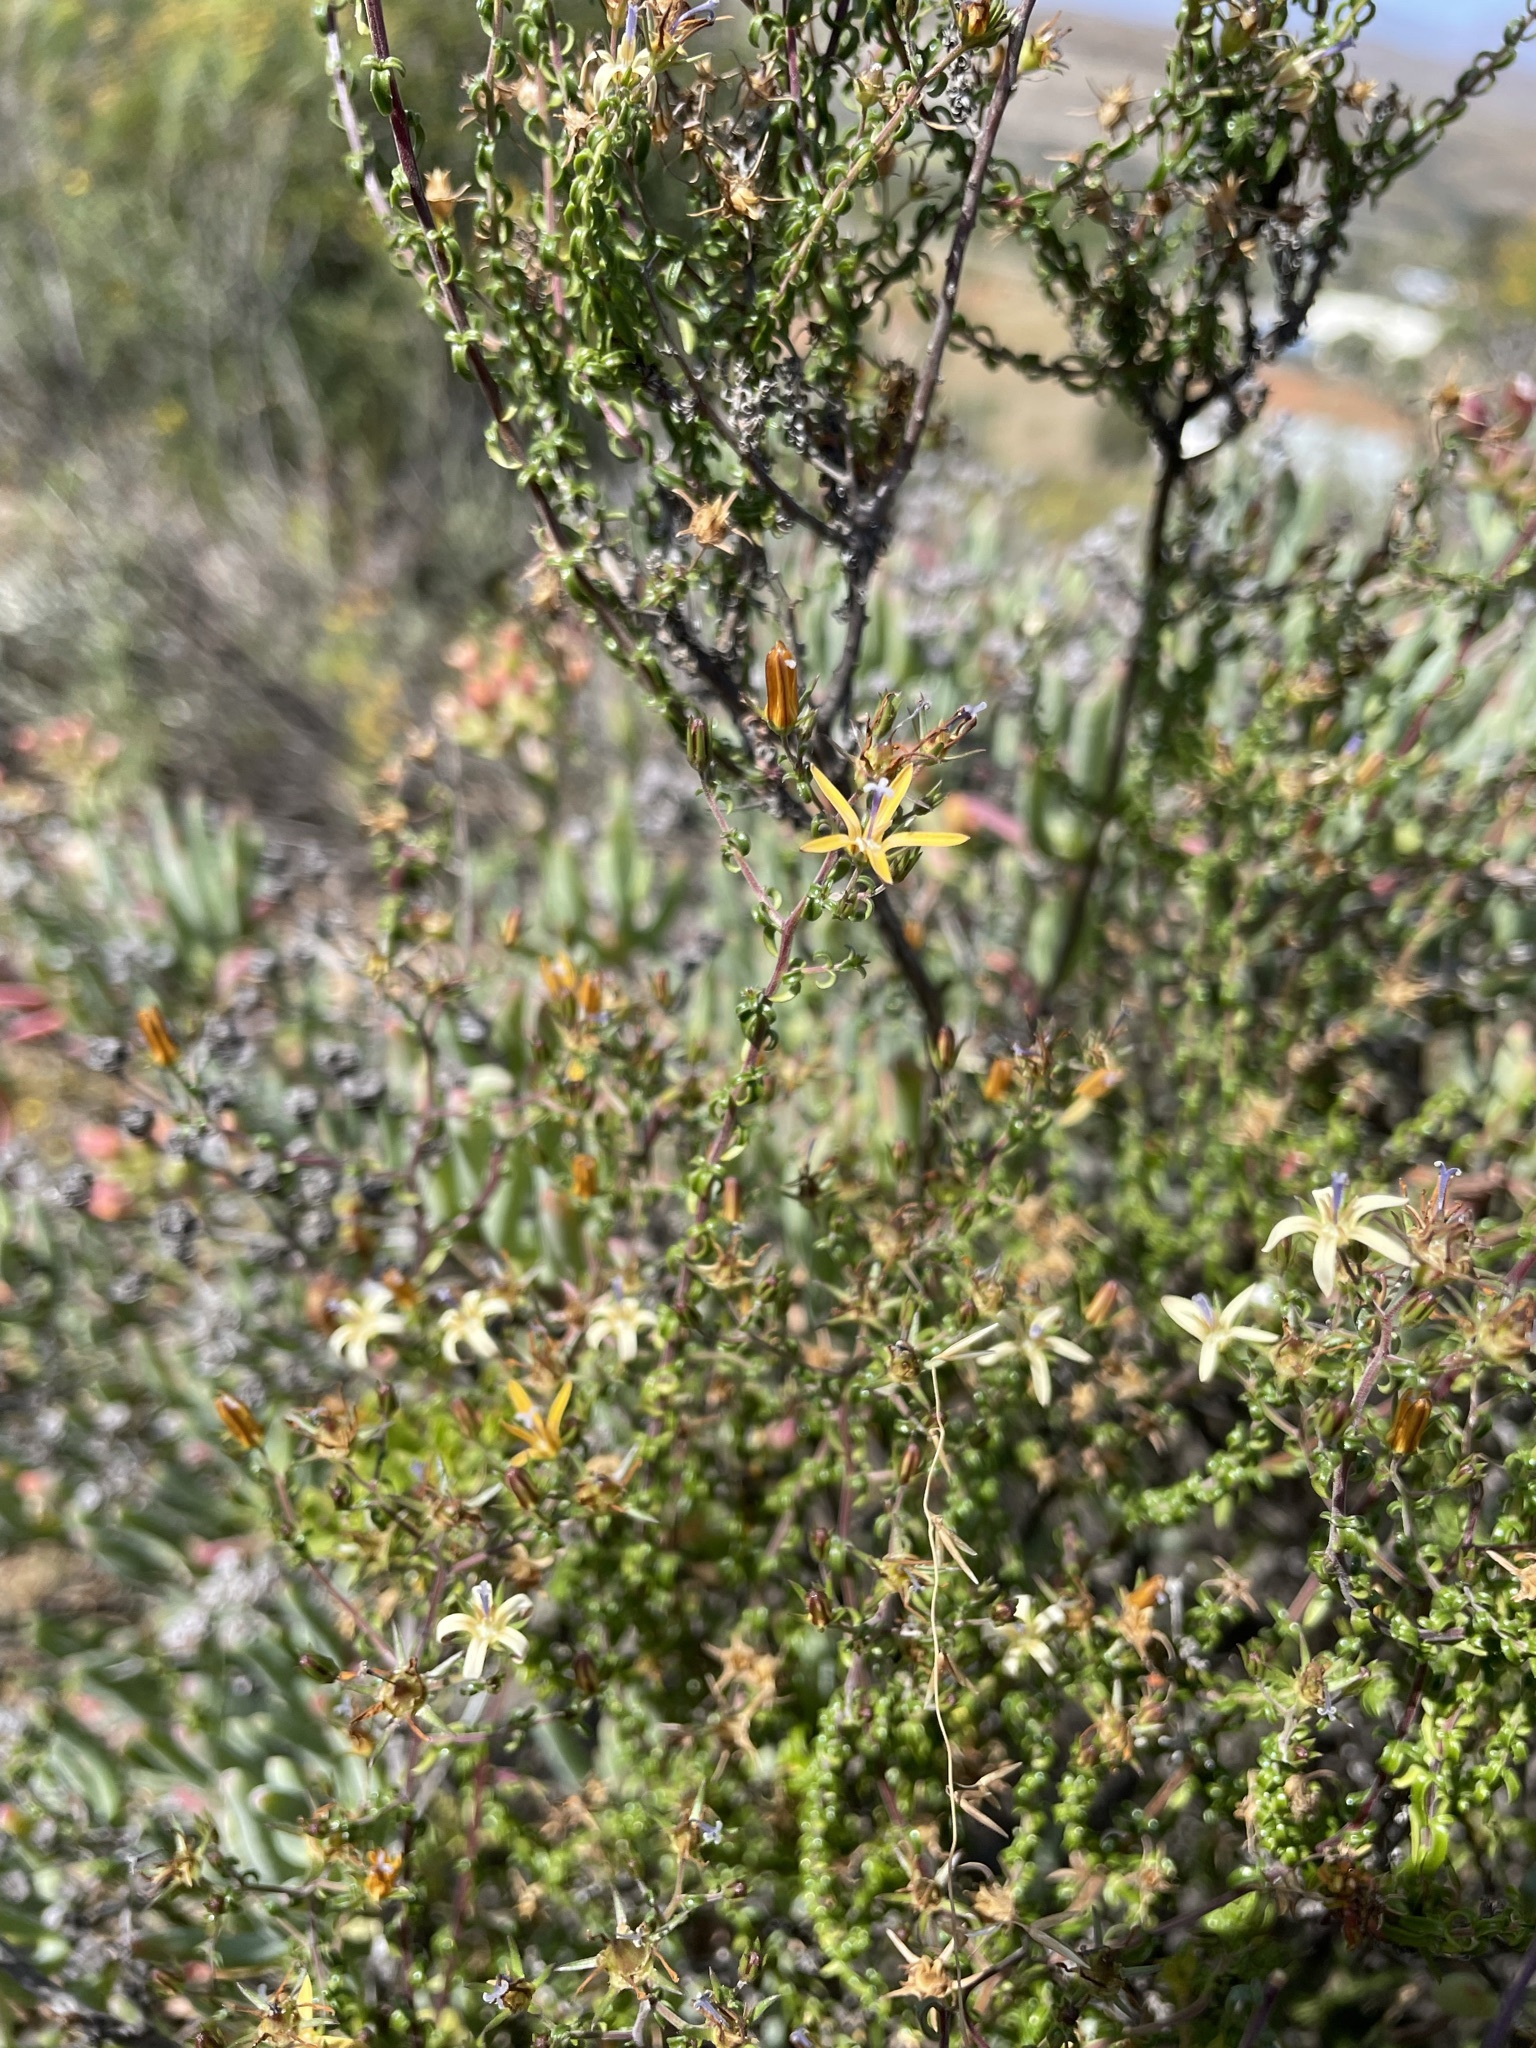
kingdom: Plantae
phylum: Tracheophyta
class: Magnoliopsida
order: Asterales
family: Campanulaceae
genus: Wahlenbergia
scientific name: Wahlenbergia nodosa
